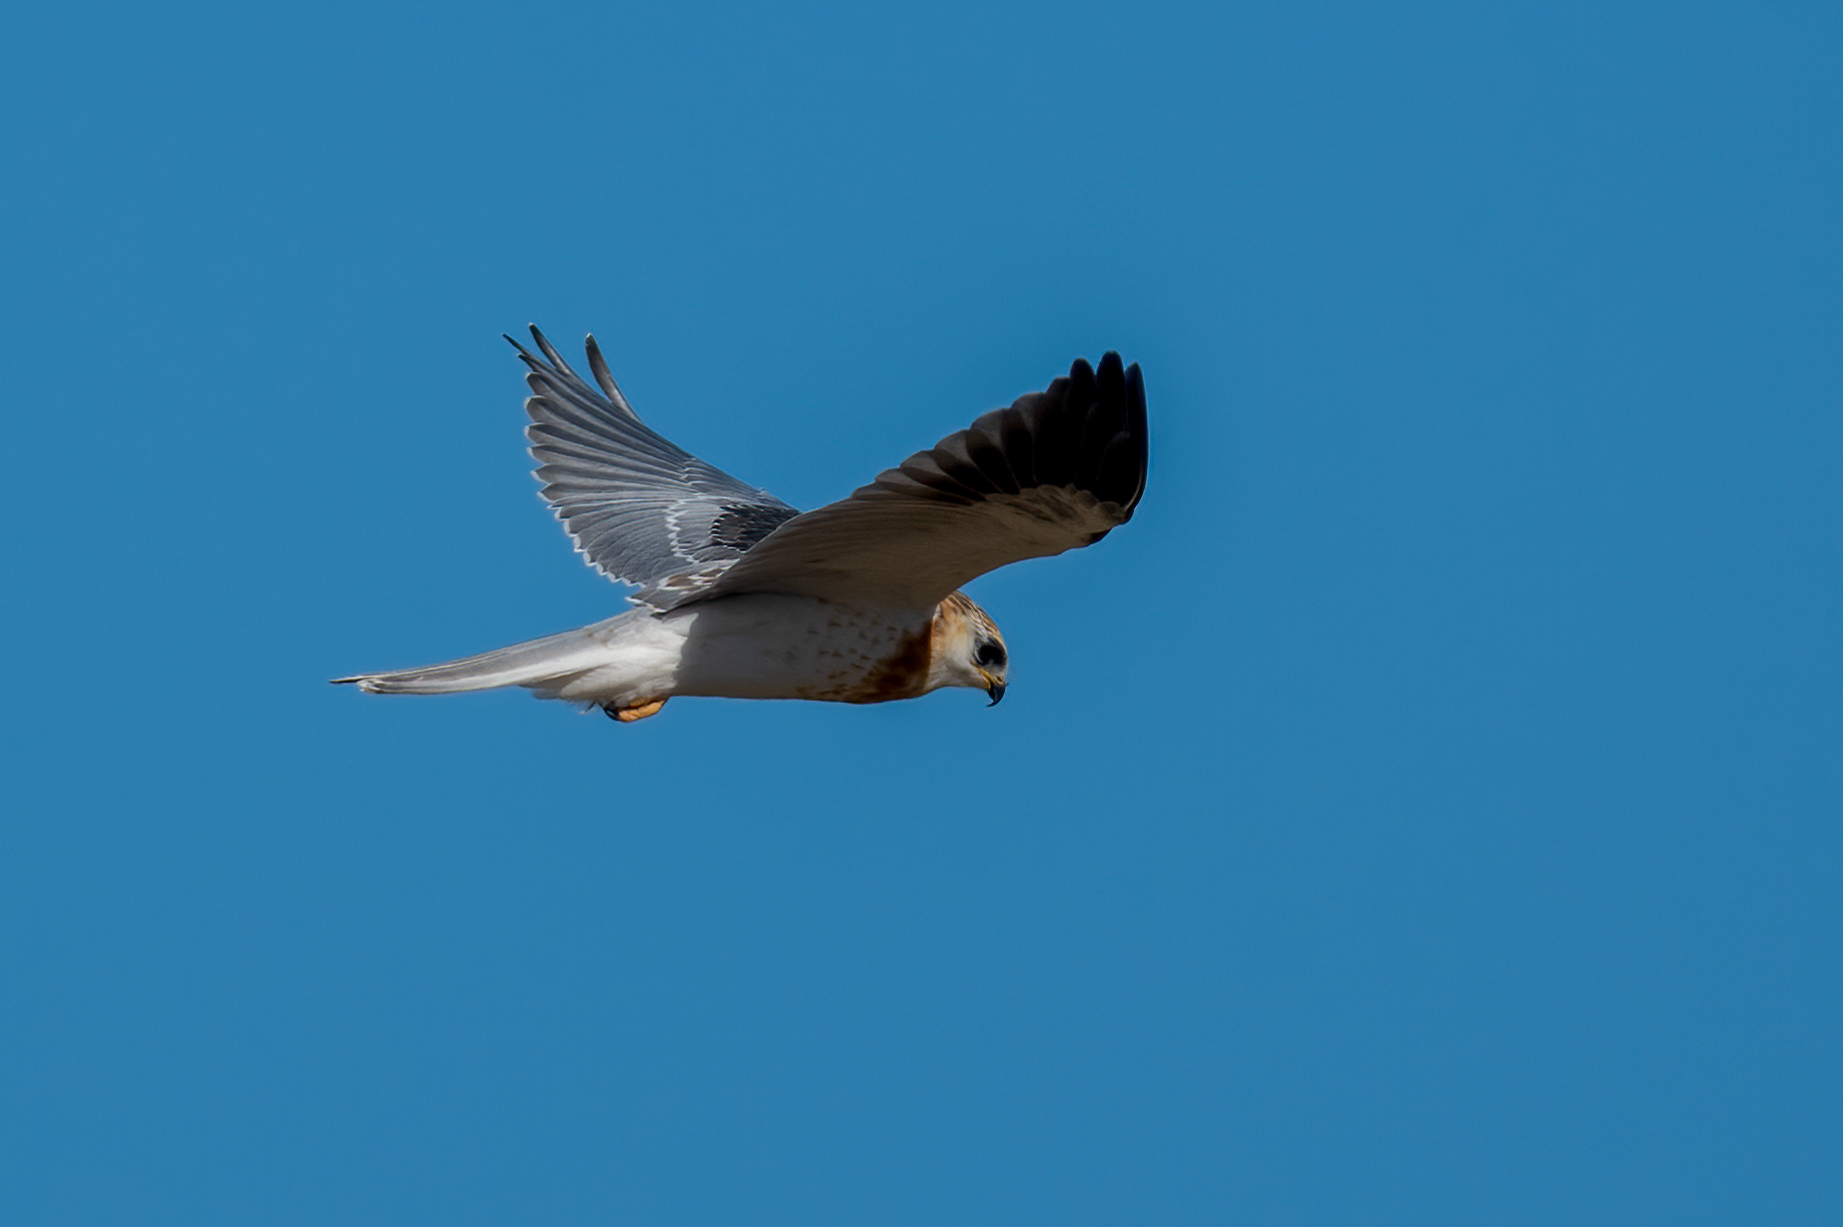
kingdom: Animalia
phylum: Chordata
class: Aves
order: Accipitriformes
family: Accipitridae
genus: Elanus
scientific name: Elanus leucurus
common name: White-tailed kite
